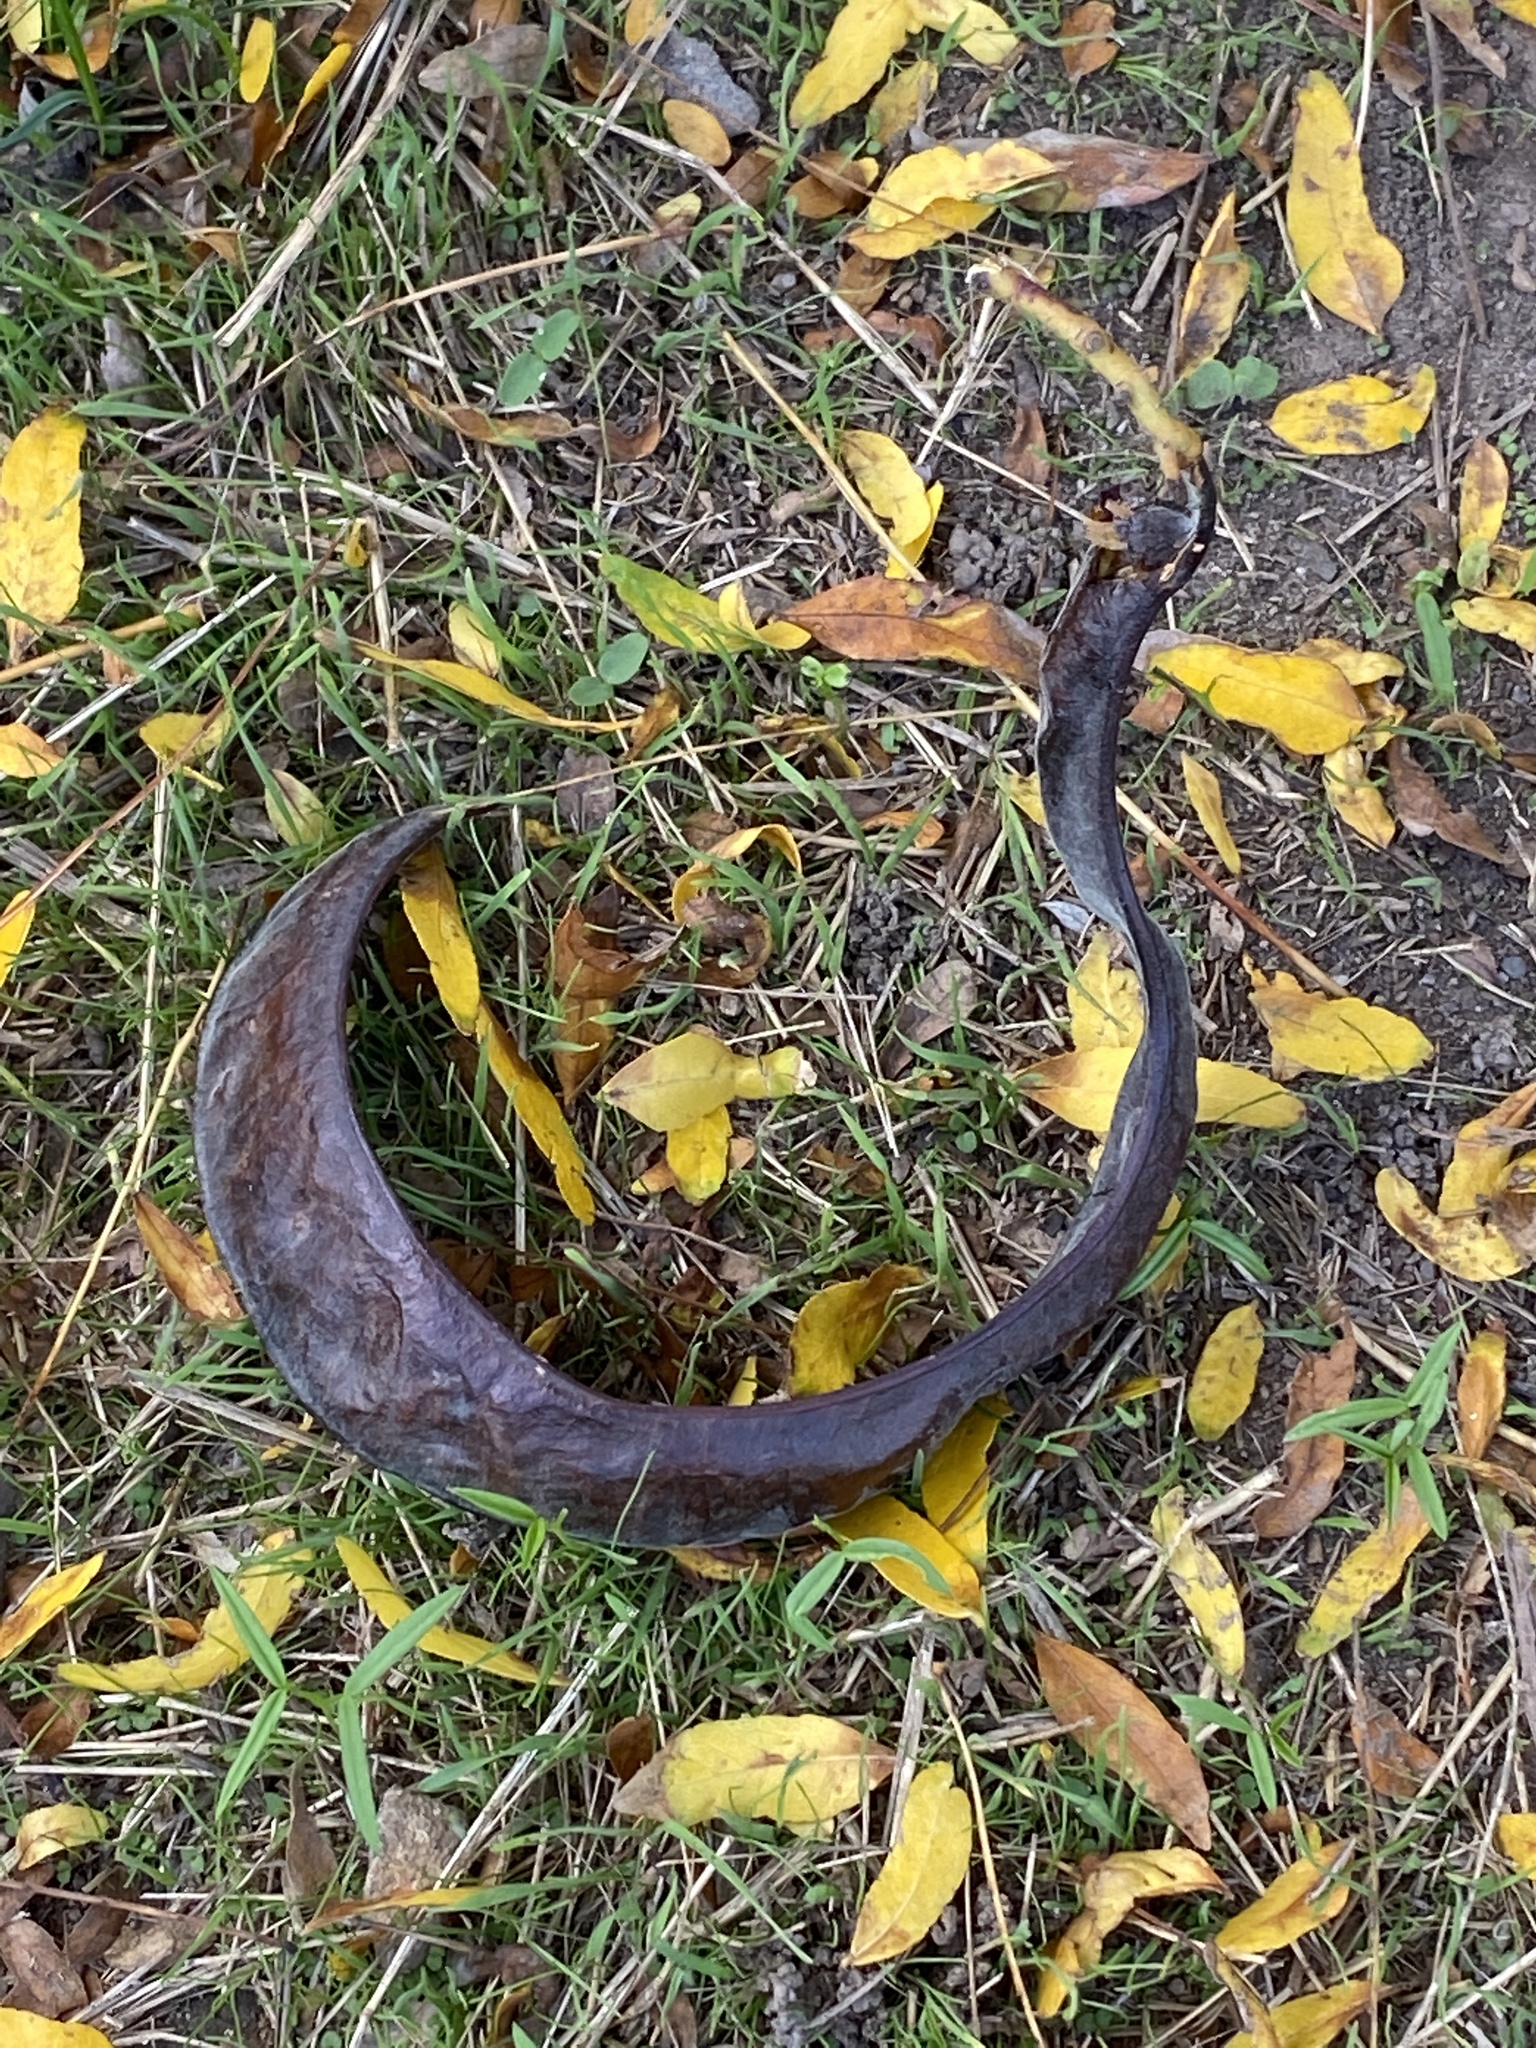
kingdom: Plantae
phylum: Tracheophyta
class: Magnoliopsida
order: Fabales
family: Fabaceae
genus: Gleditsia
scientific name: Gleditsia triacanthos
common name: Common honeylocust
